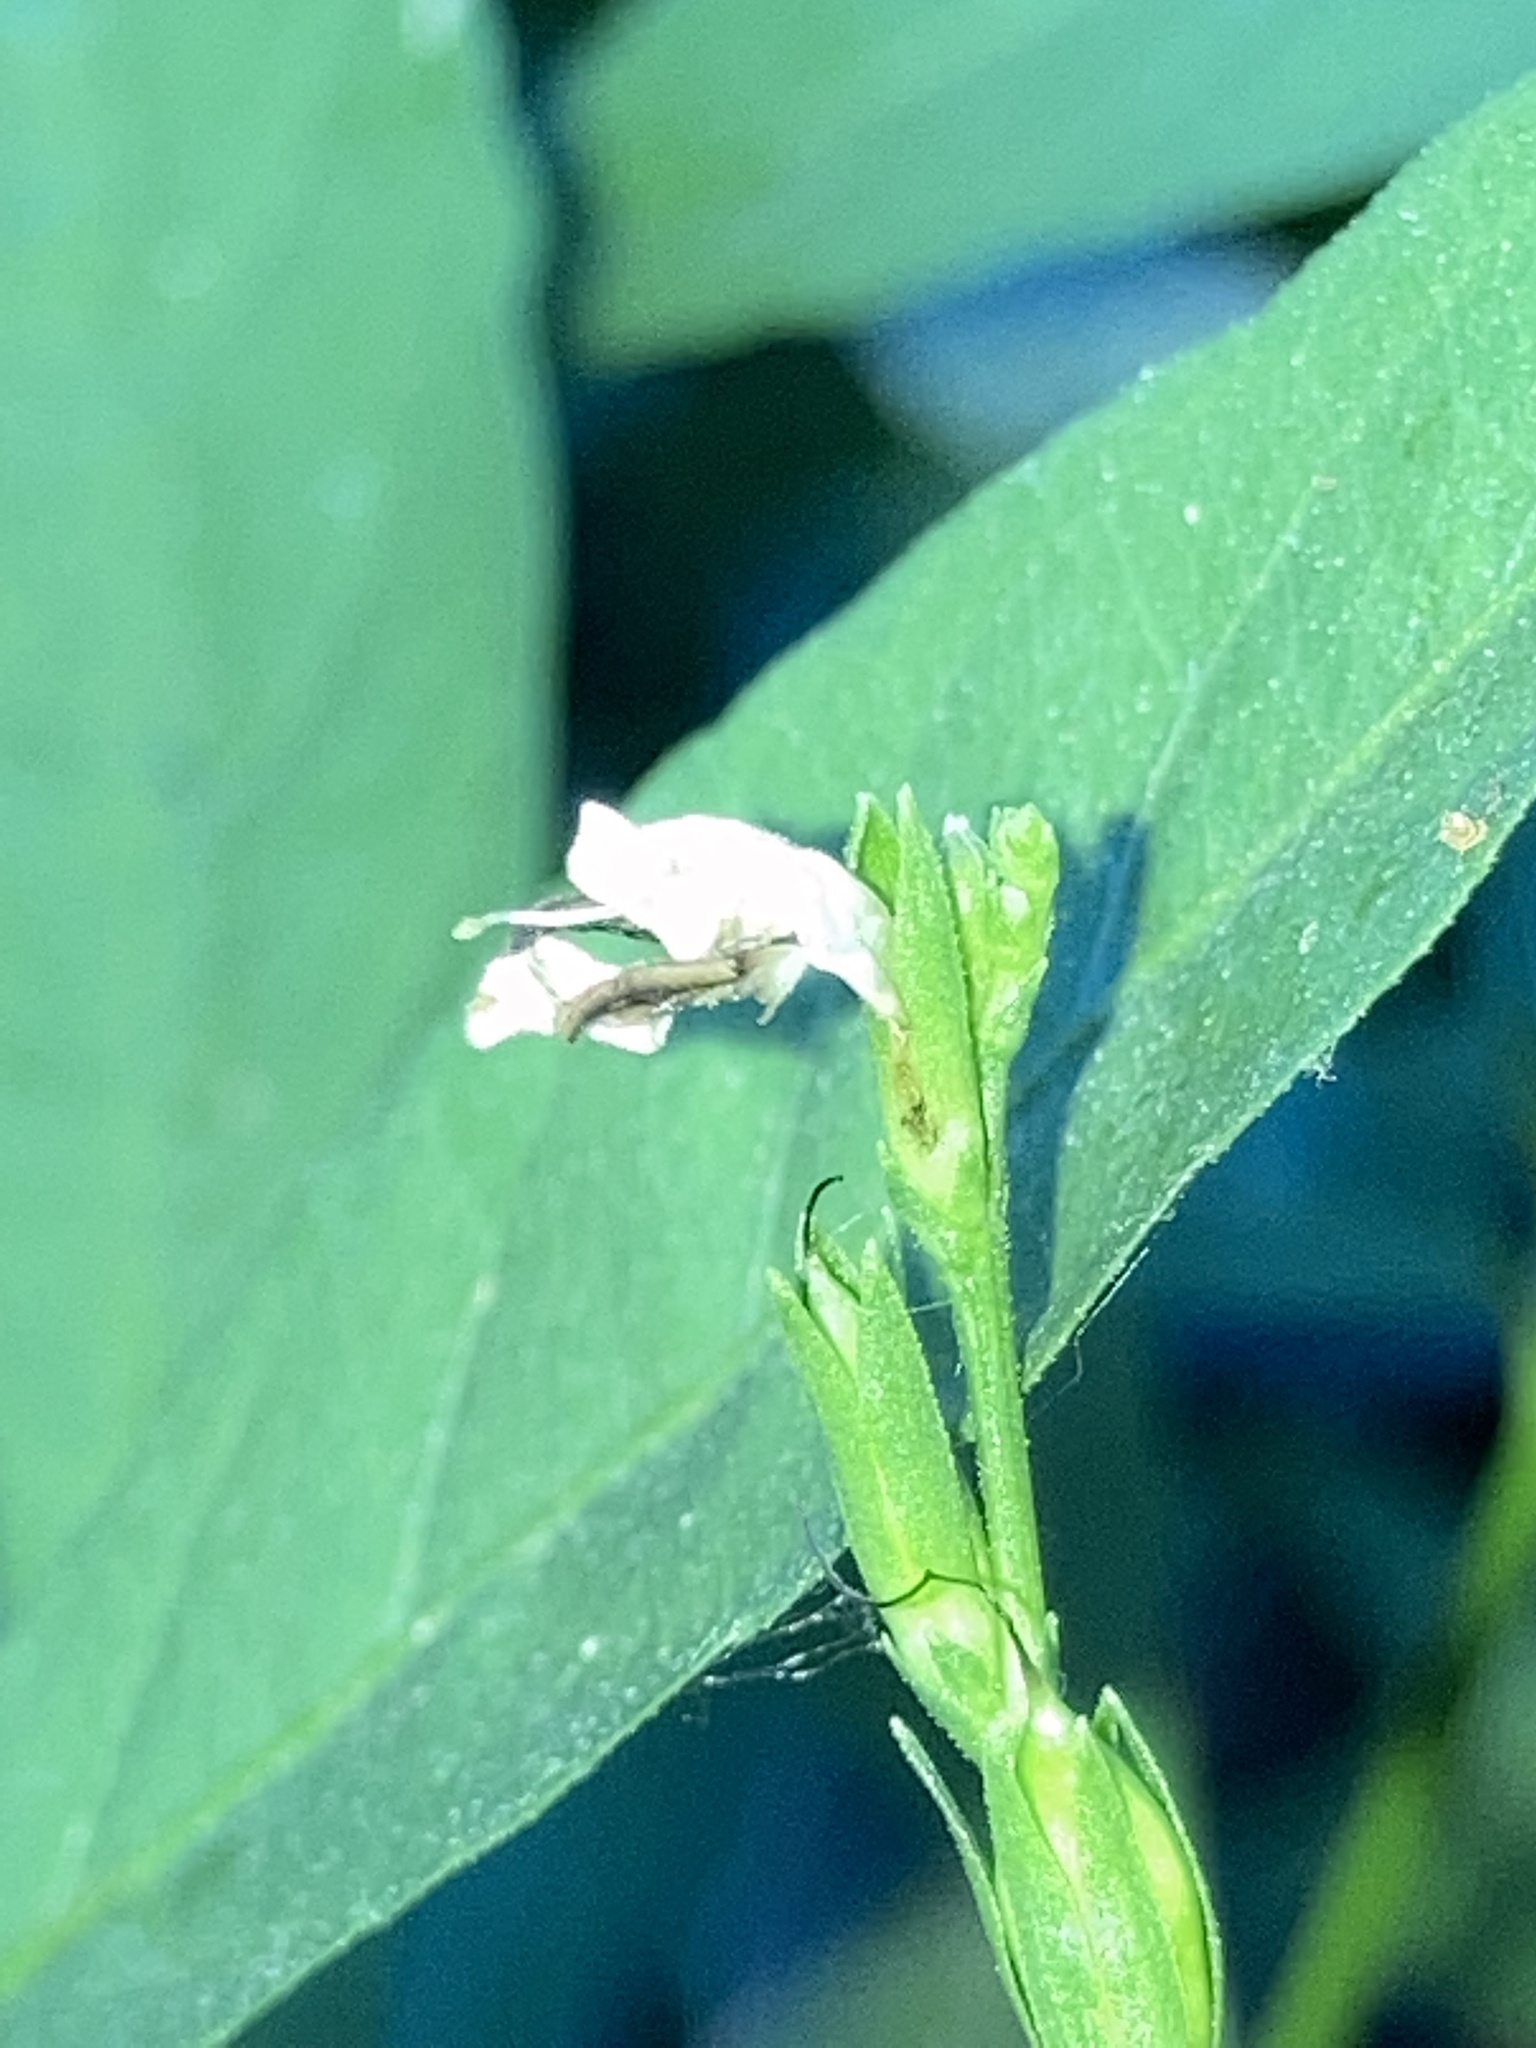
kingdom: Plantae
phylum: Tracheophyta
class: Magnoliopsida
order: Lamiales
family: Acanthaceae
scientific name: Acanthaceae
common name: Acanthaceae
